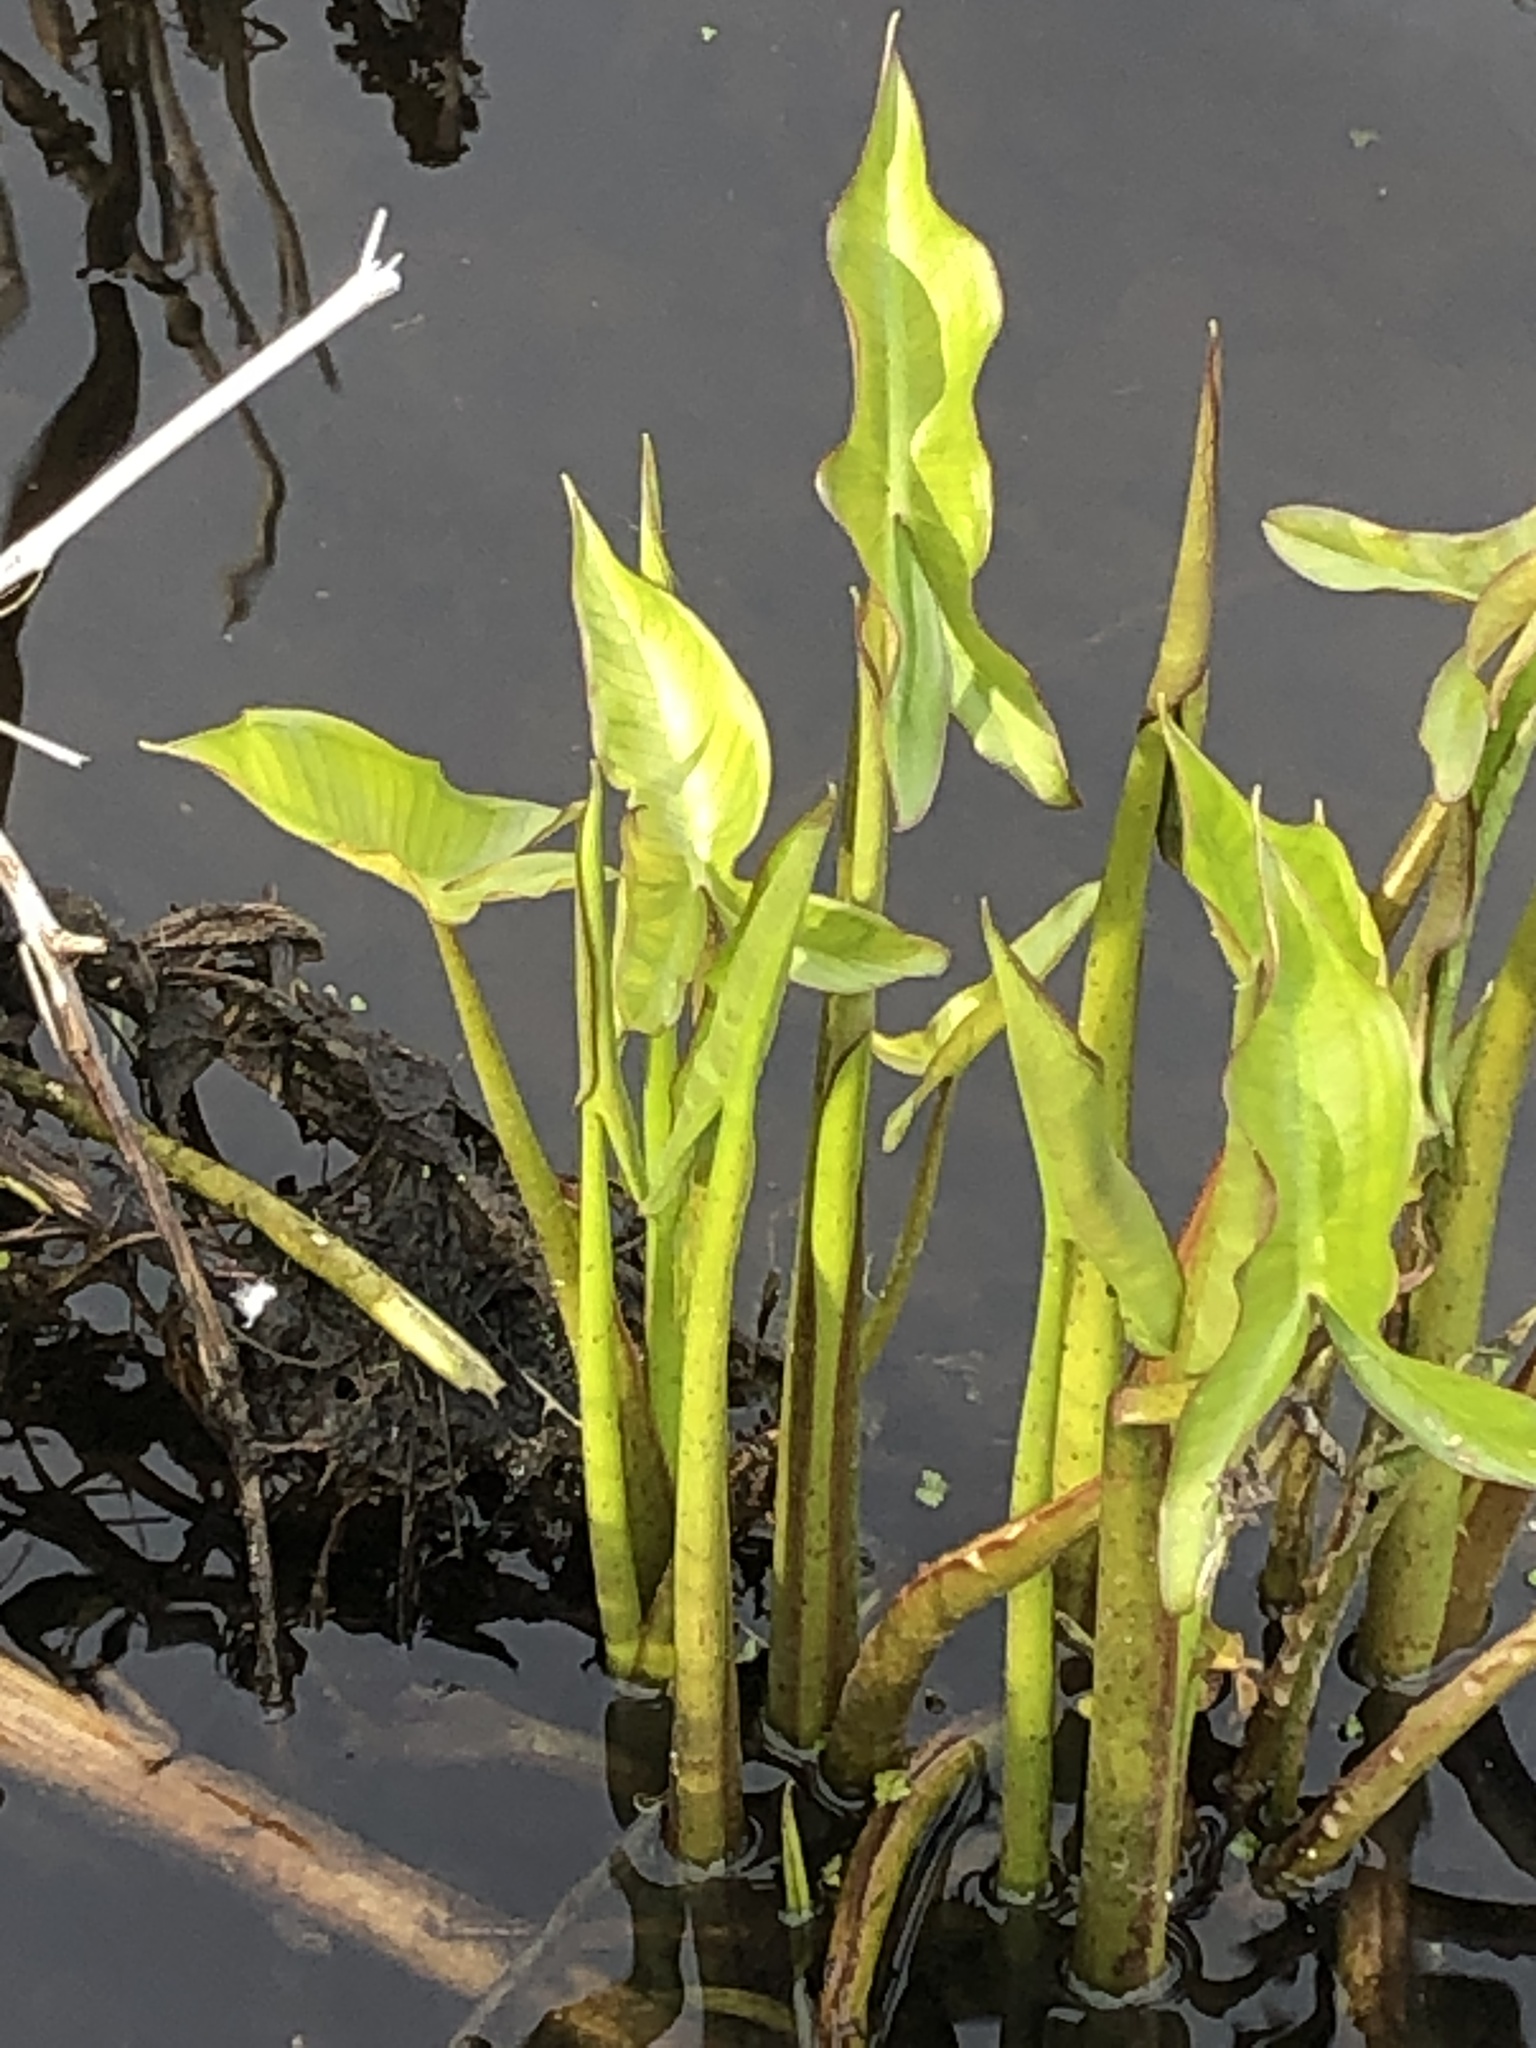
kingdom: Plantae
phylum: Tracheophyta
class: Liliopsida
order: Alismatales
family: Araceae
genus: Peltandra
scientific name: Peltandra virginica
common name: Arrow arum
